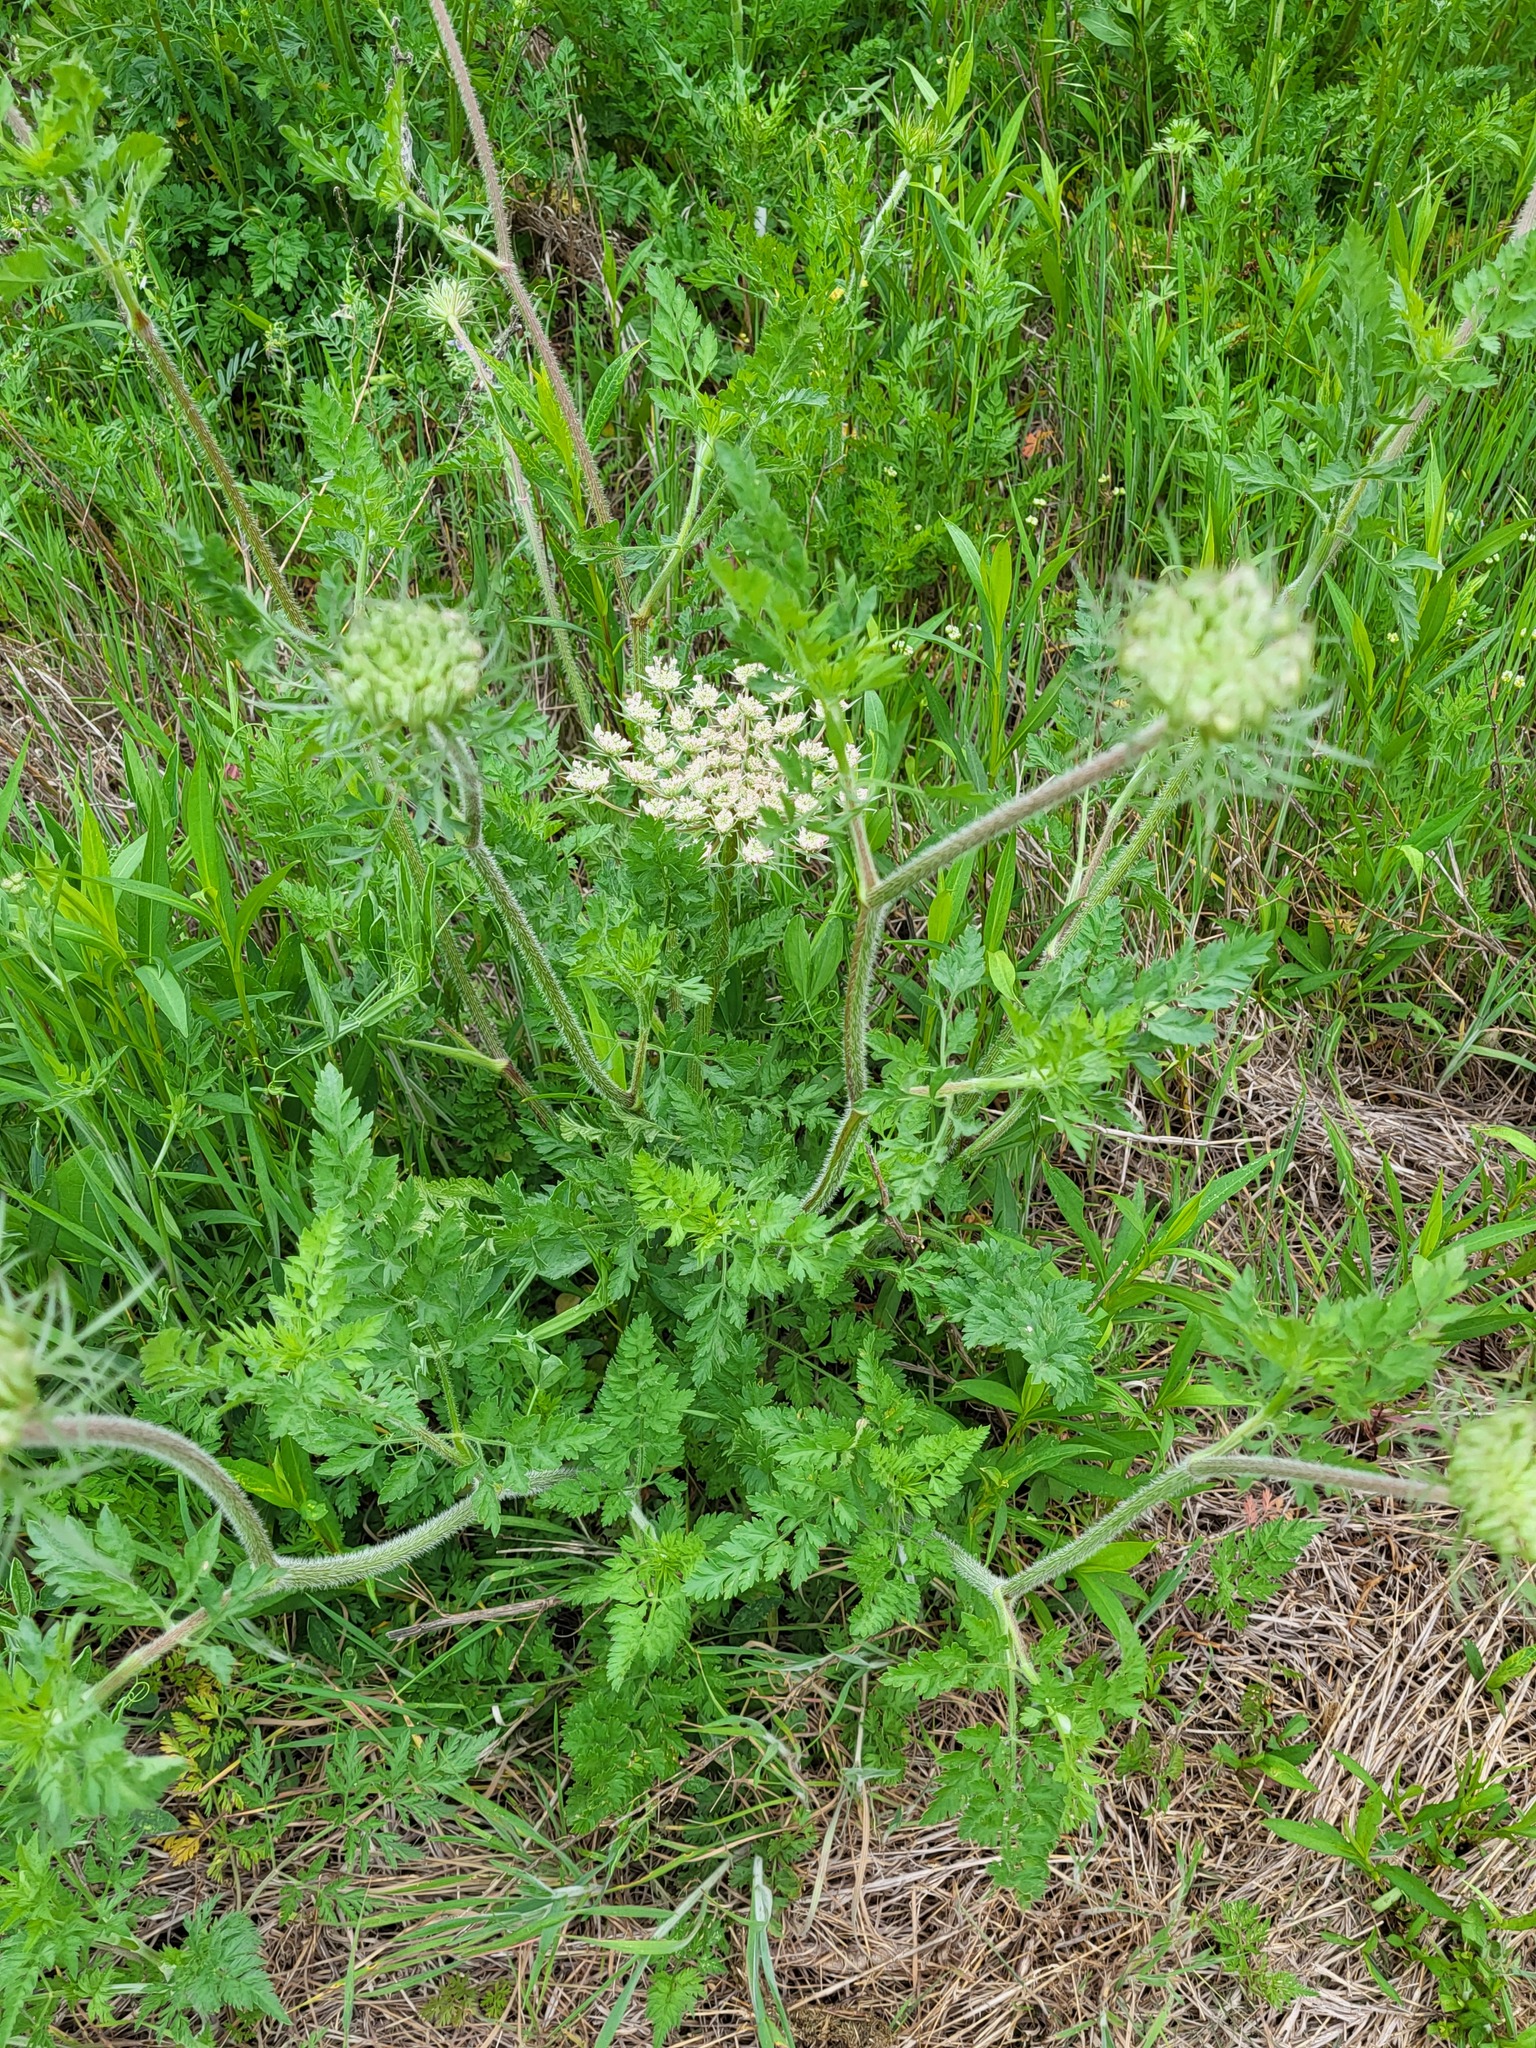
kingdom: Plantae
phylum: Tracheophyta
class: Magnoliopsida
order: Apiales
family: Apiaceae
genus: Daucus
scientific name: Daucus carota
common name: Wild carrot
